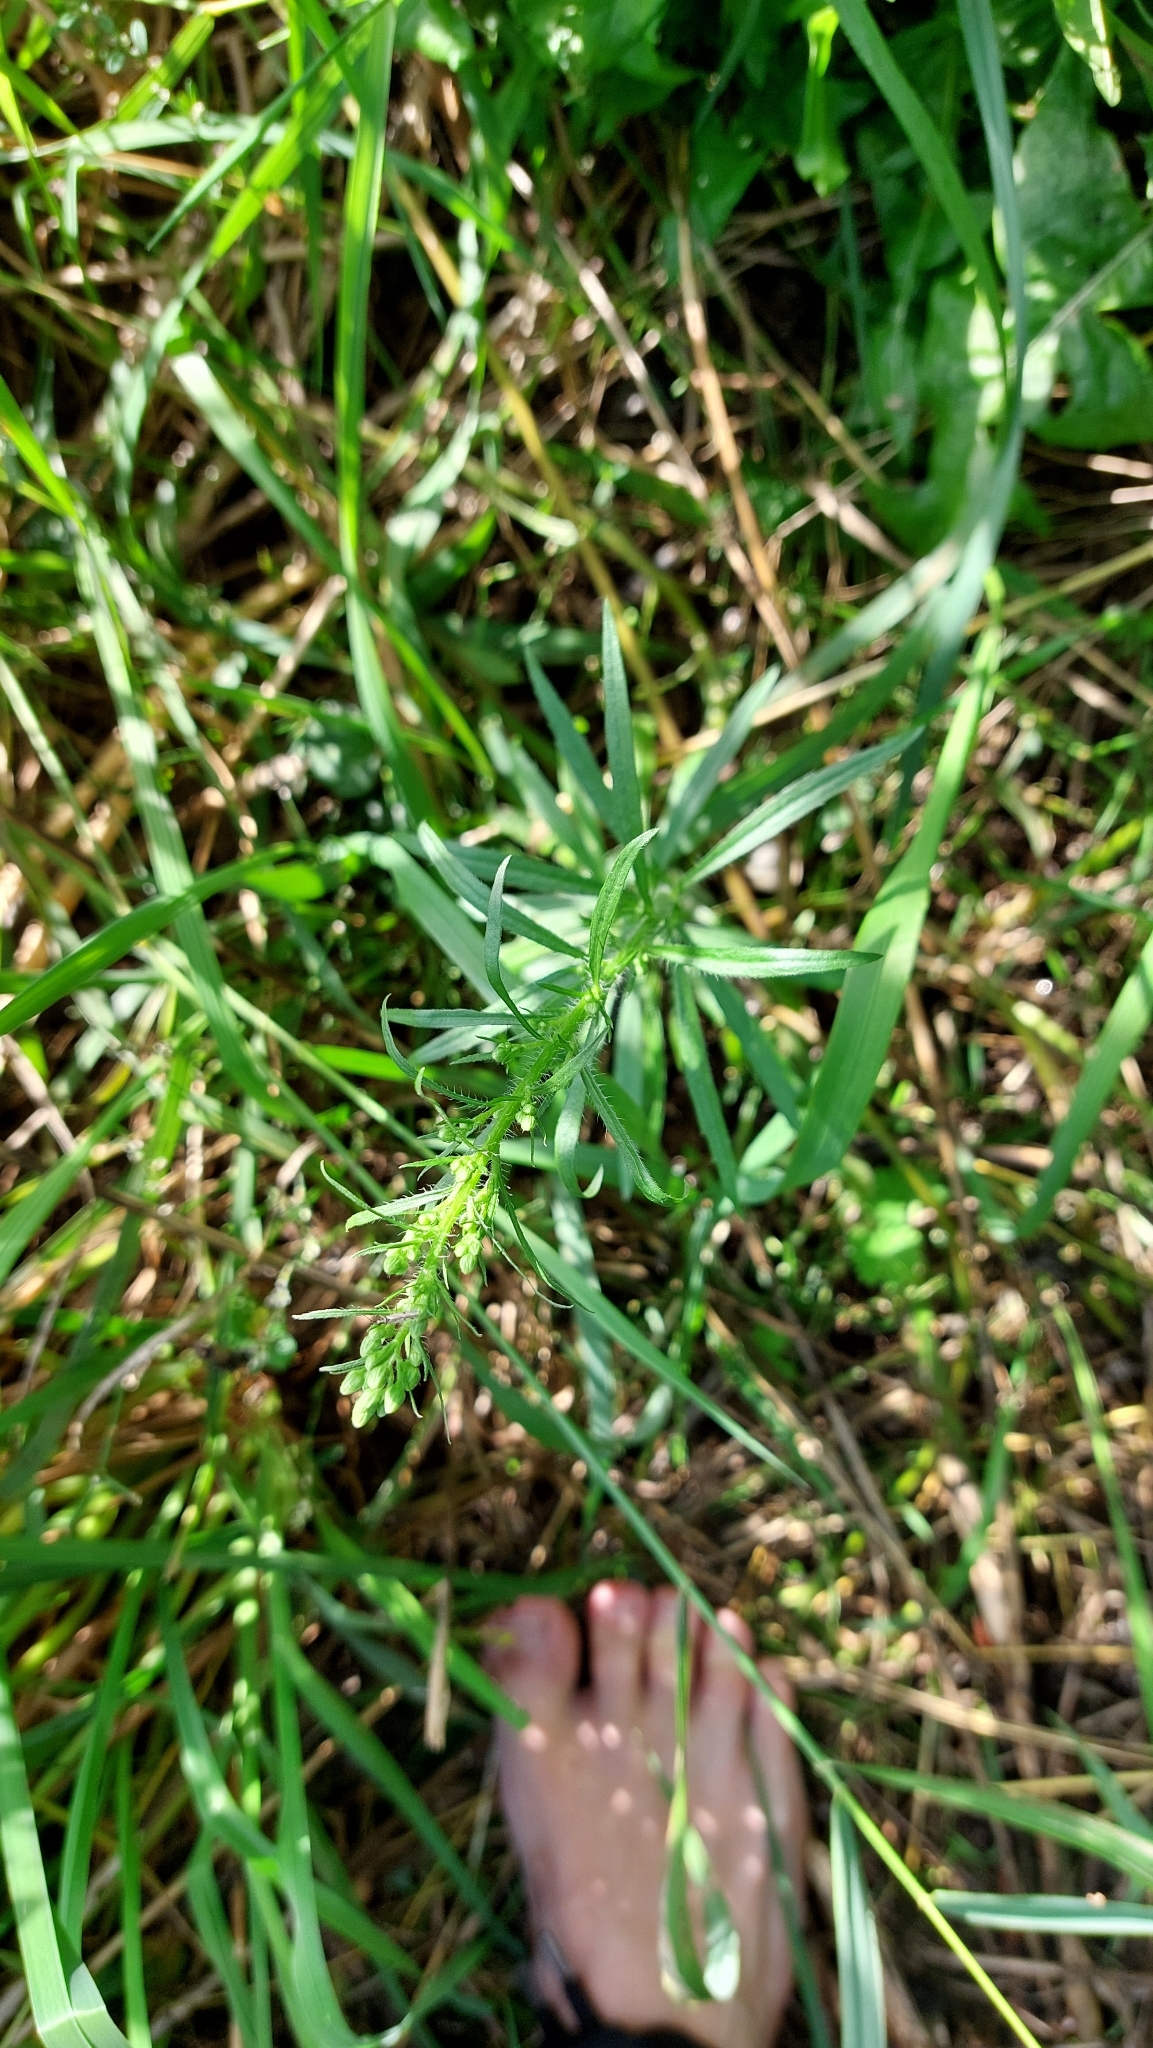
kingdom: Plantae
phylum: Tracheophyta
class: Magnoliopsida
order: Asterales
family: Asteraceae
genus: Erigeron
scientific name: Erigeron canadensis
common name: Canadian fleabane
